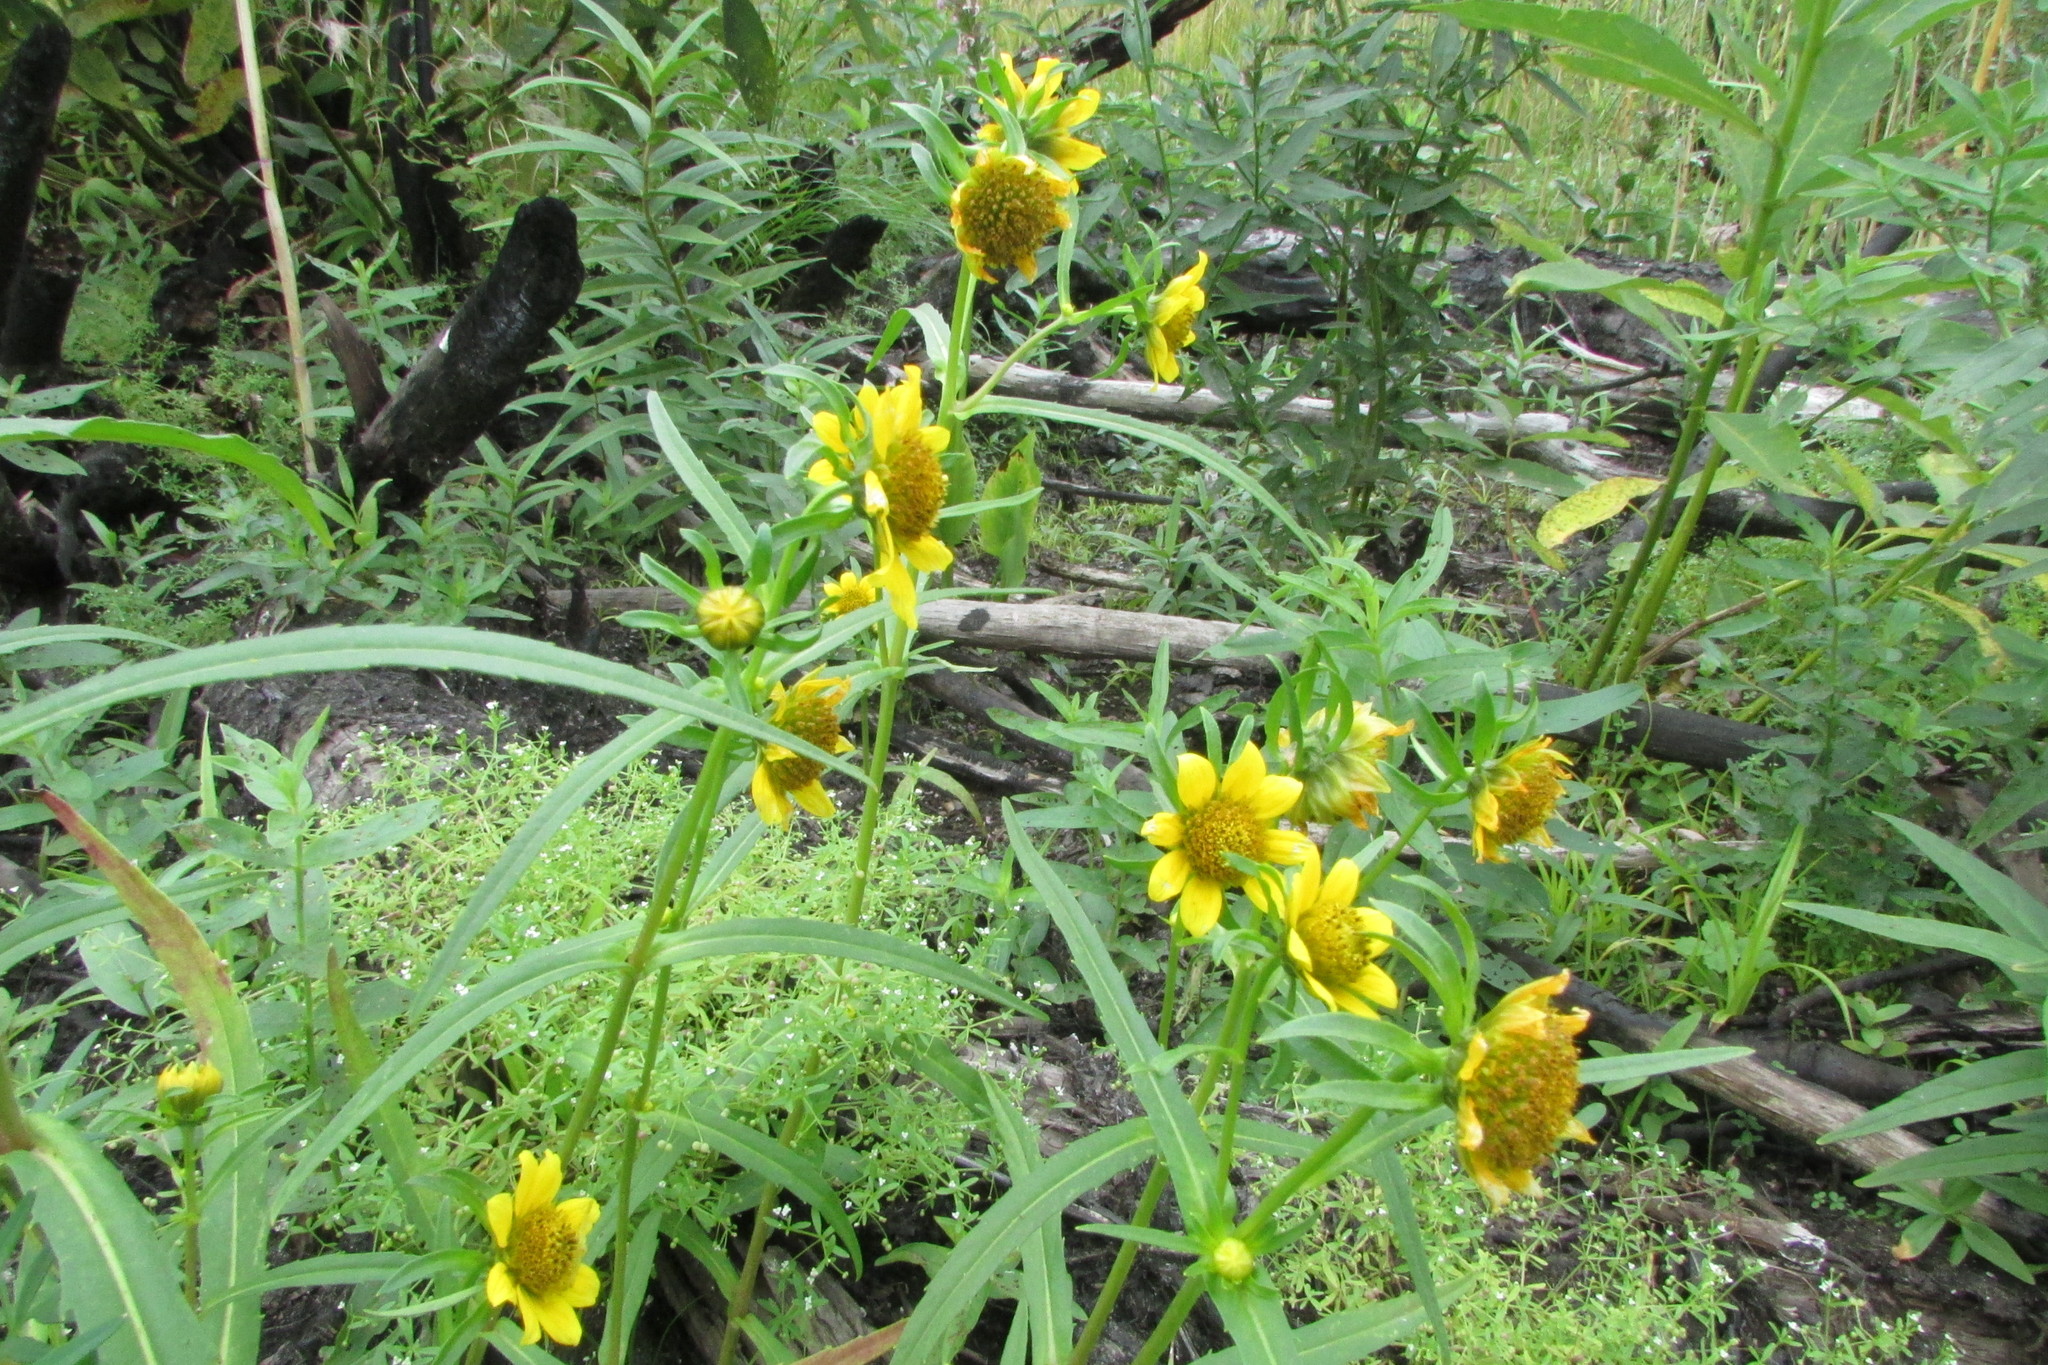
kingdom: Plantae
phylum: Tracheophyta
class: Magnoliopsida
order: Asterales
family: Asteraceae
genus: Bidens
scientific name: Bidens cernua
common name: Nodding bur-marigold
